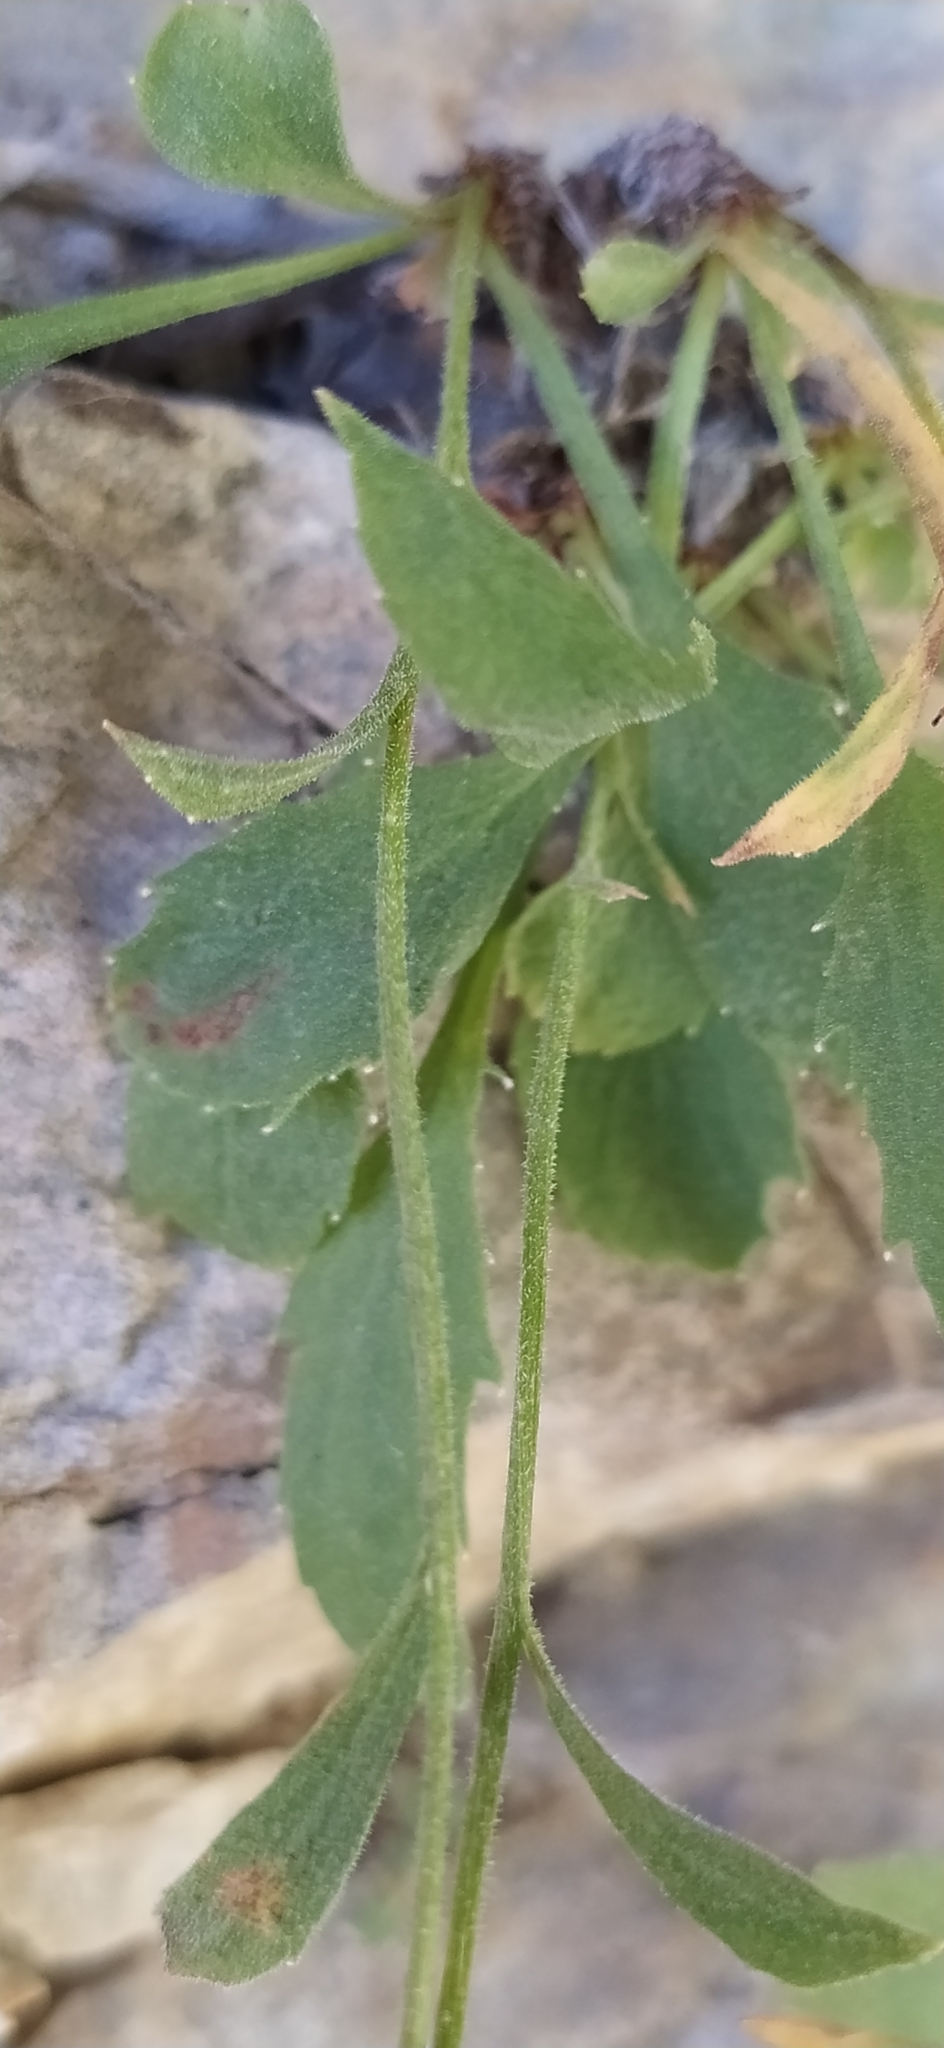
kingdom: Plantae
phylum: Tracheophyta
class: Magnoliopsida
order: Asterales
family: Campanulaceae
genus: Campanula
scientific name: Campanula lehmanniana
